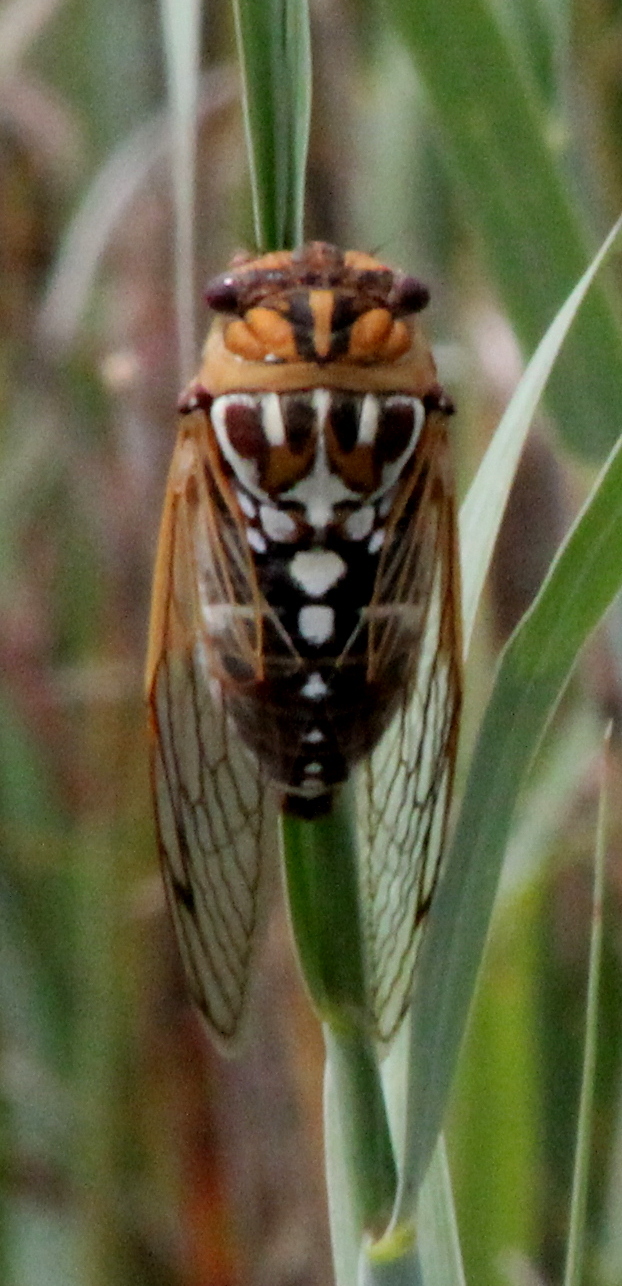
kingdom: Animalia
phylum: Arthropoda
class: Insecta
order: Hemiptera
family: Cicadidae
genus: Megatibicen
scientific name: Megatibicen tremulus
